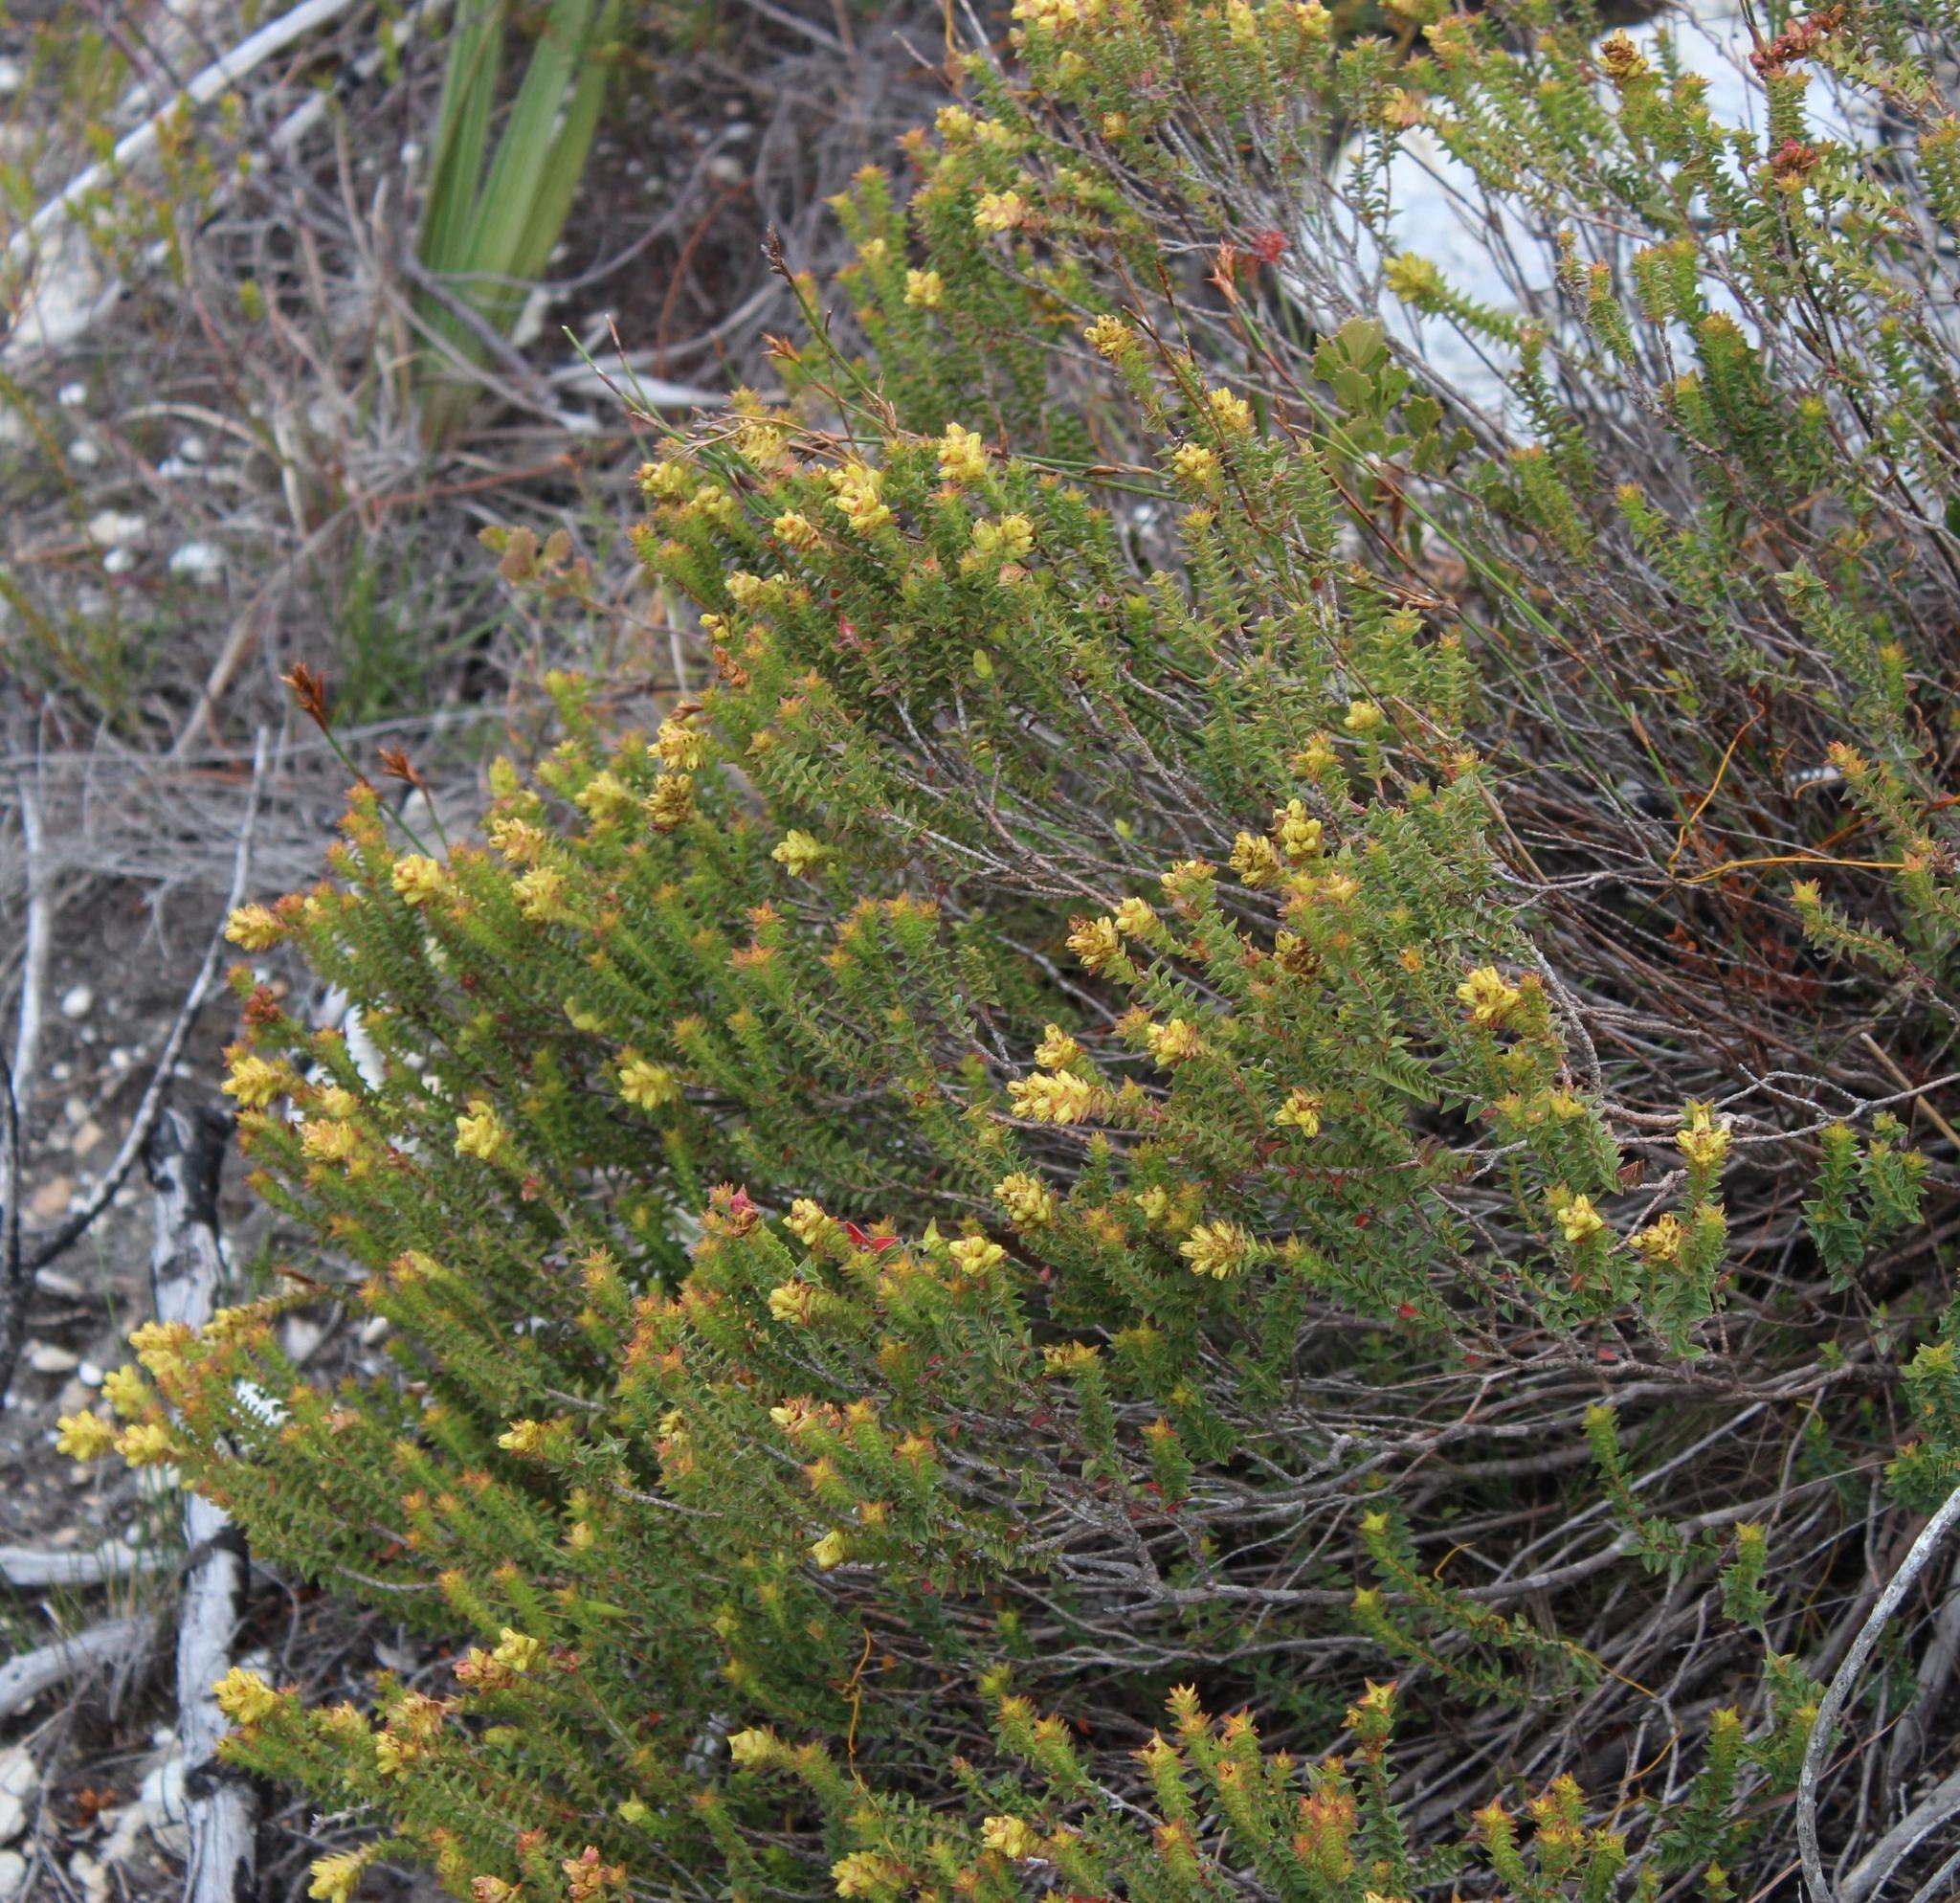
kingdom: Plantae
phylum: Tracheophyta
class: Magnoliopsida
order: Myrtales
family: Penaeaceae
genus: Penaea
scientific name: Penaea mucronata
